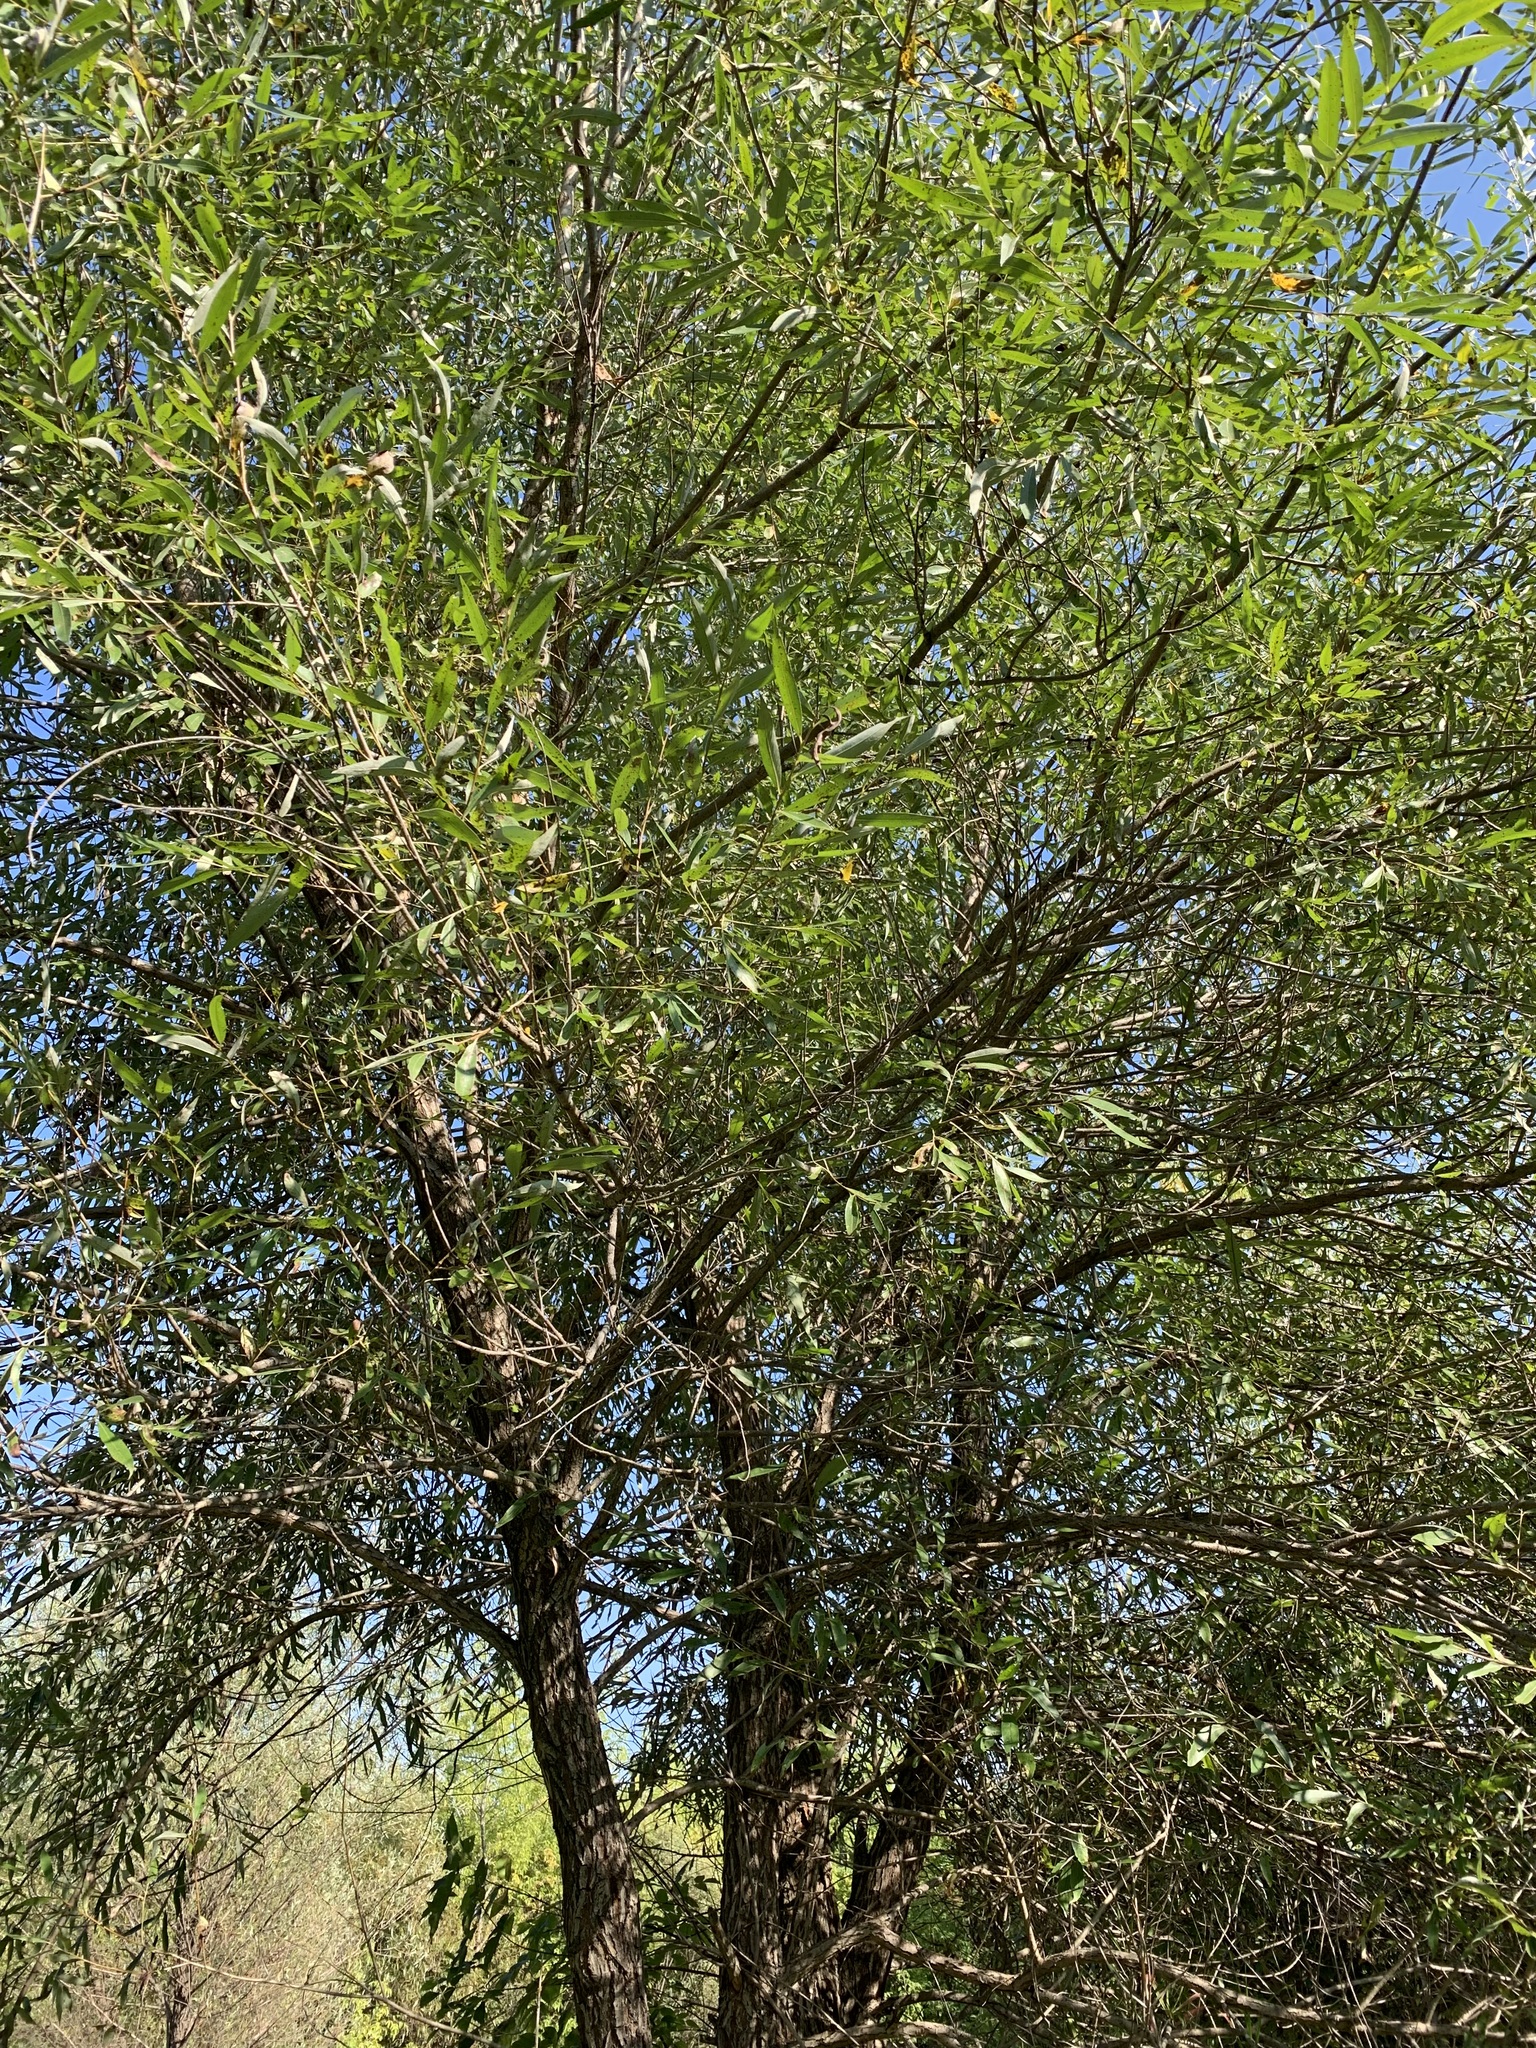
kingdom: Plantae
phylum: Tracheophyta
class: Magnoliopsida
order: Malpighiales
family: Salicaceae
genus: Salix
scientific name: Salix alba
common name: White willow
